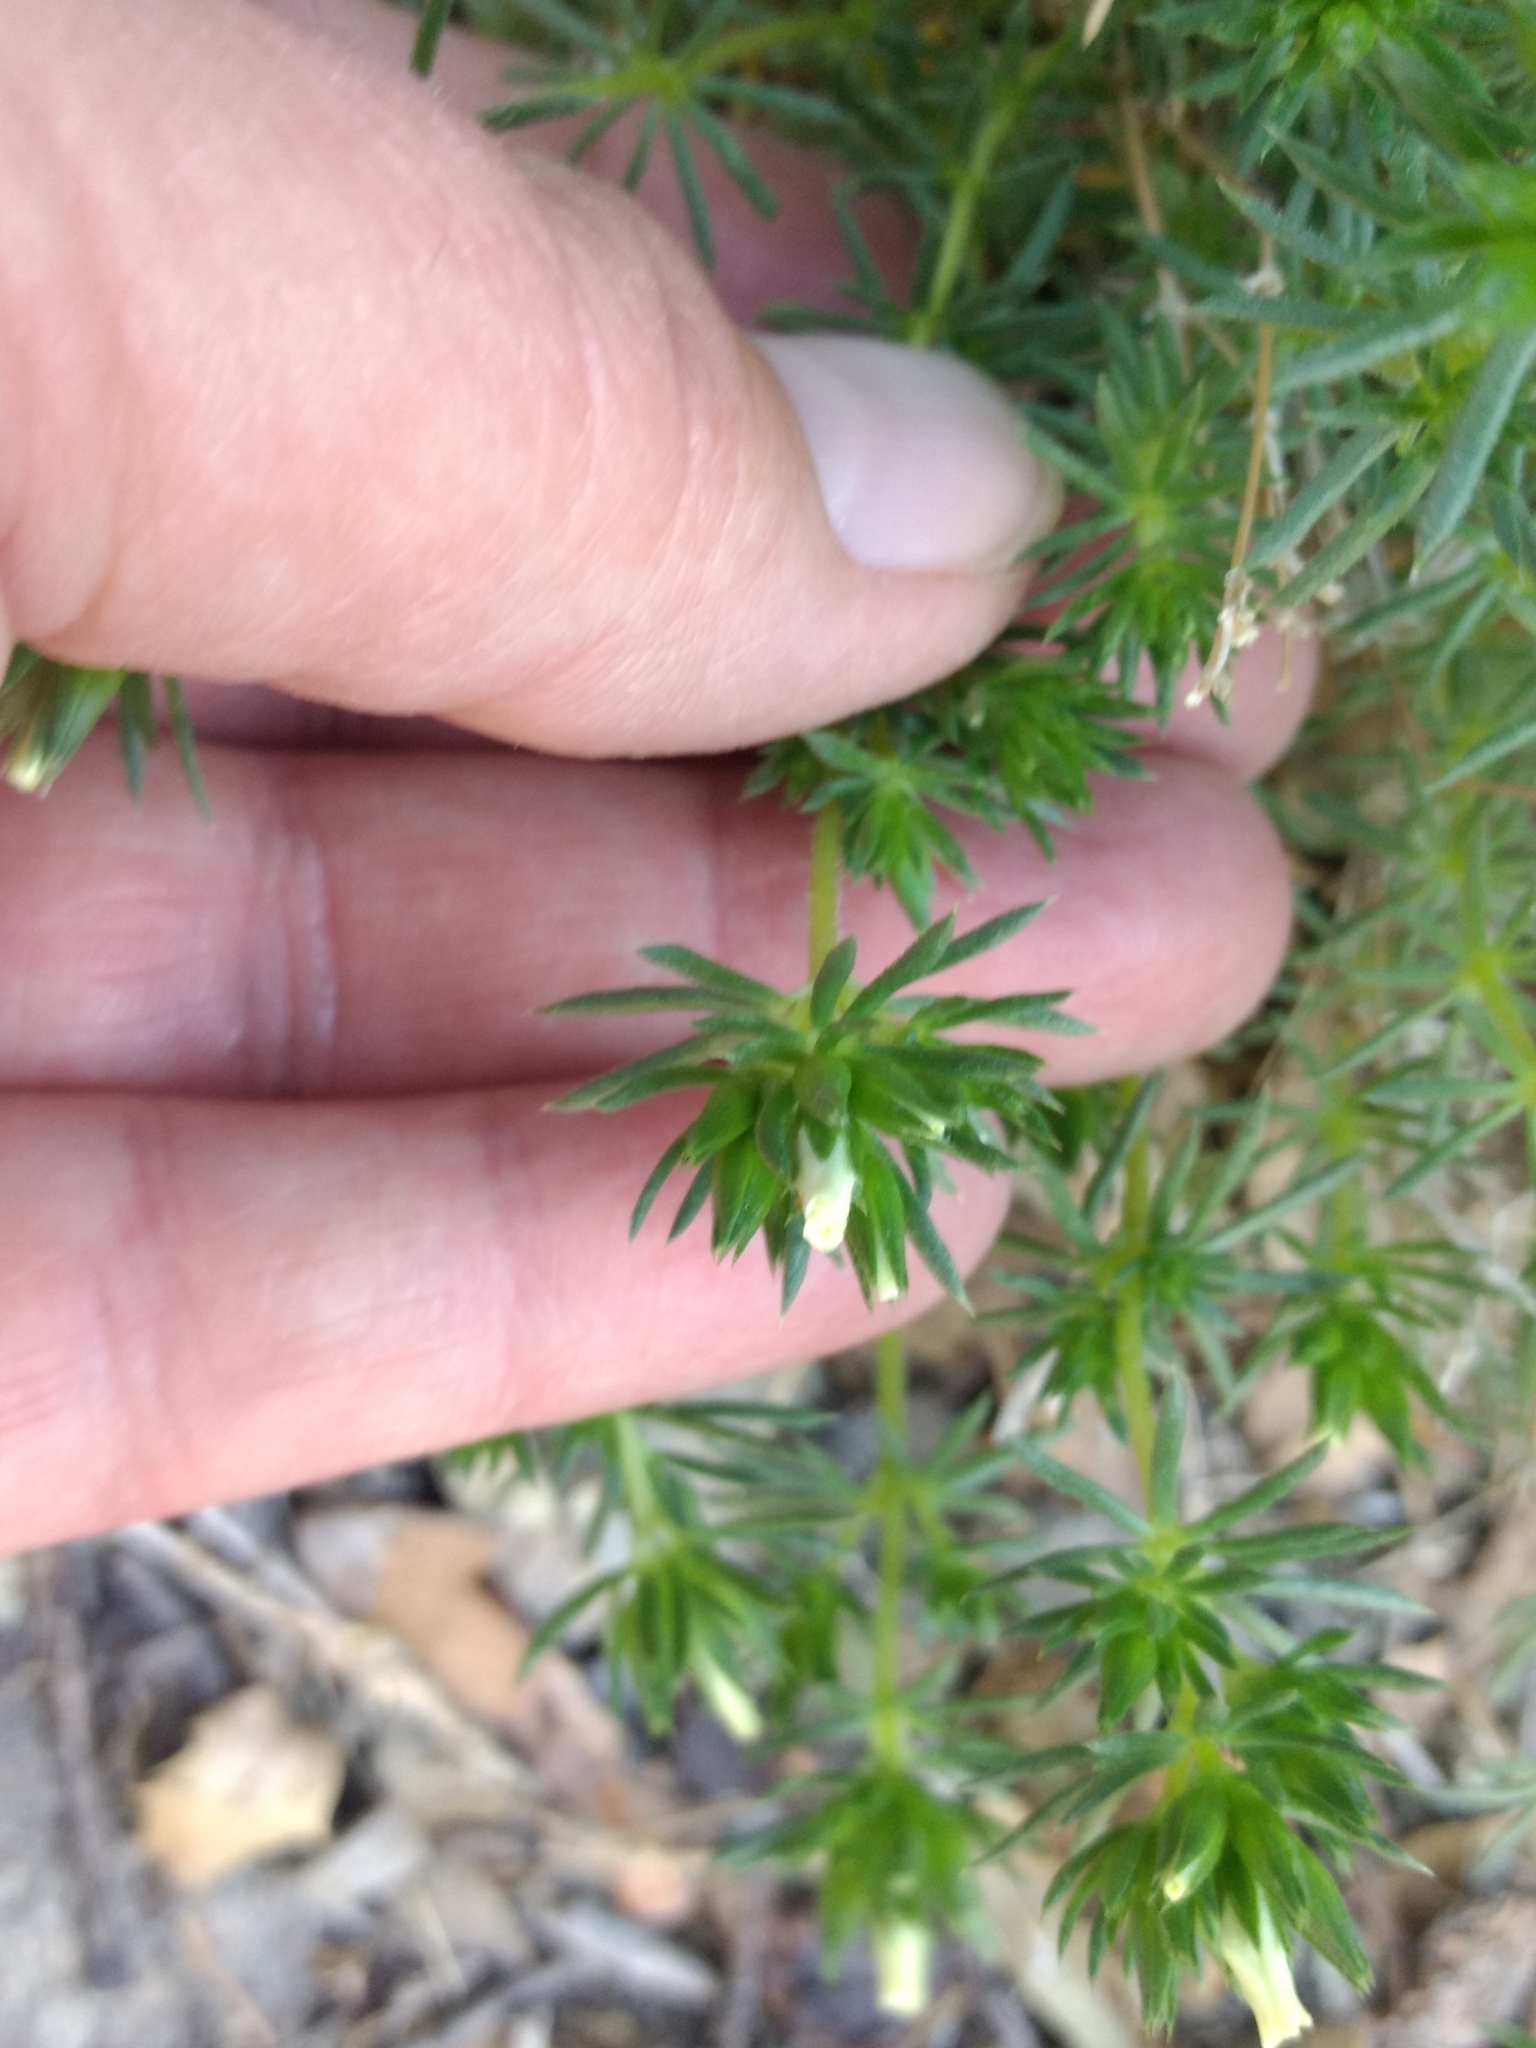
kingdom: Plantae
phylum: Tracheophyta
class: Magnoliopsida
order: Ericales
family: Polemoniaceae
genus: Leptosiphon
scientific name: Leptosiphon floribundum
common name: Many-flower linanthus
